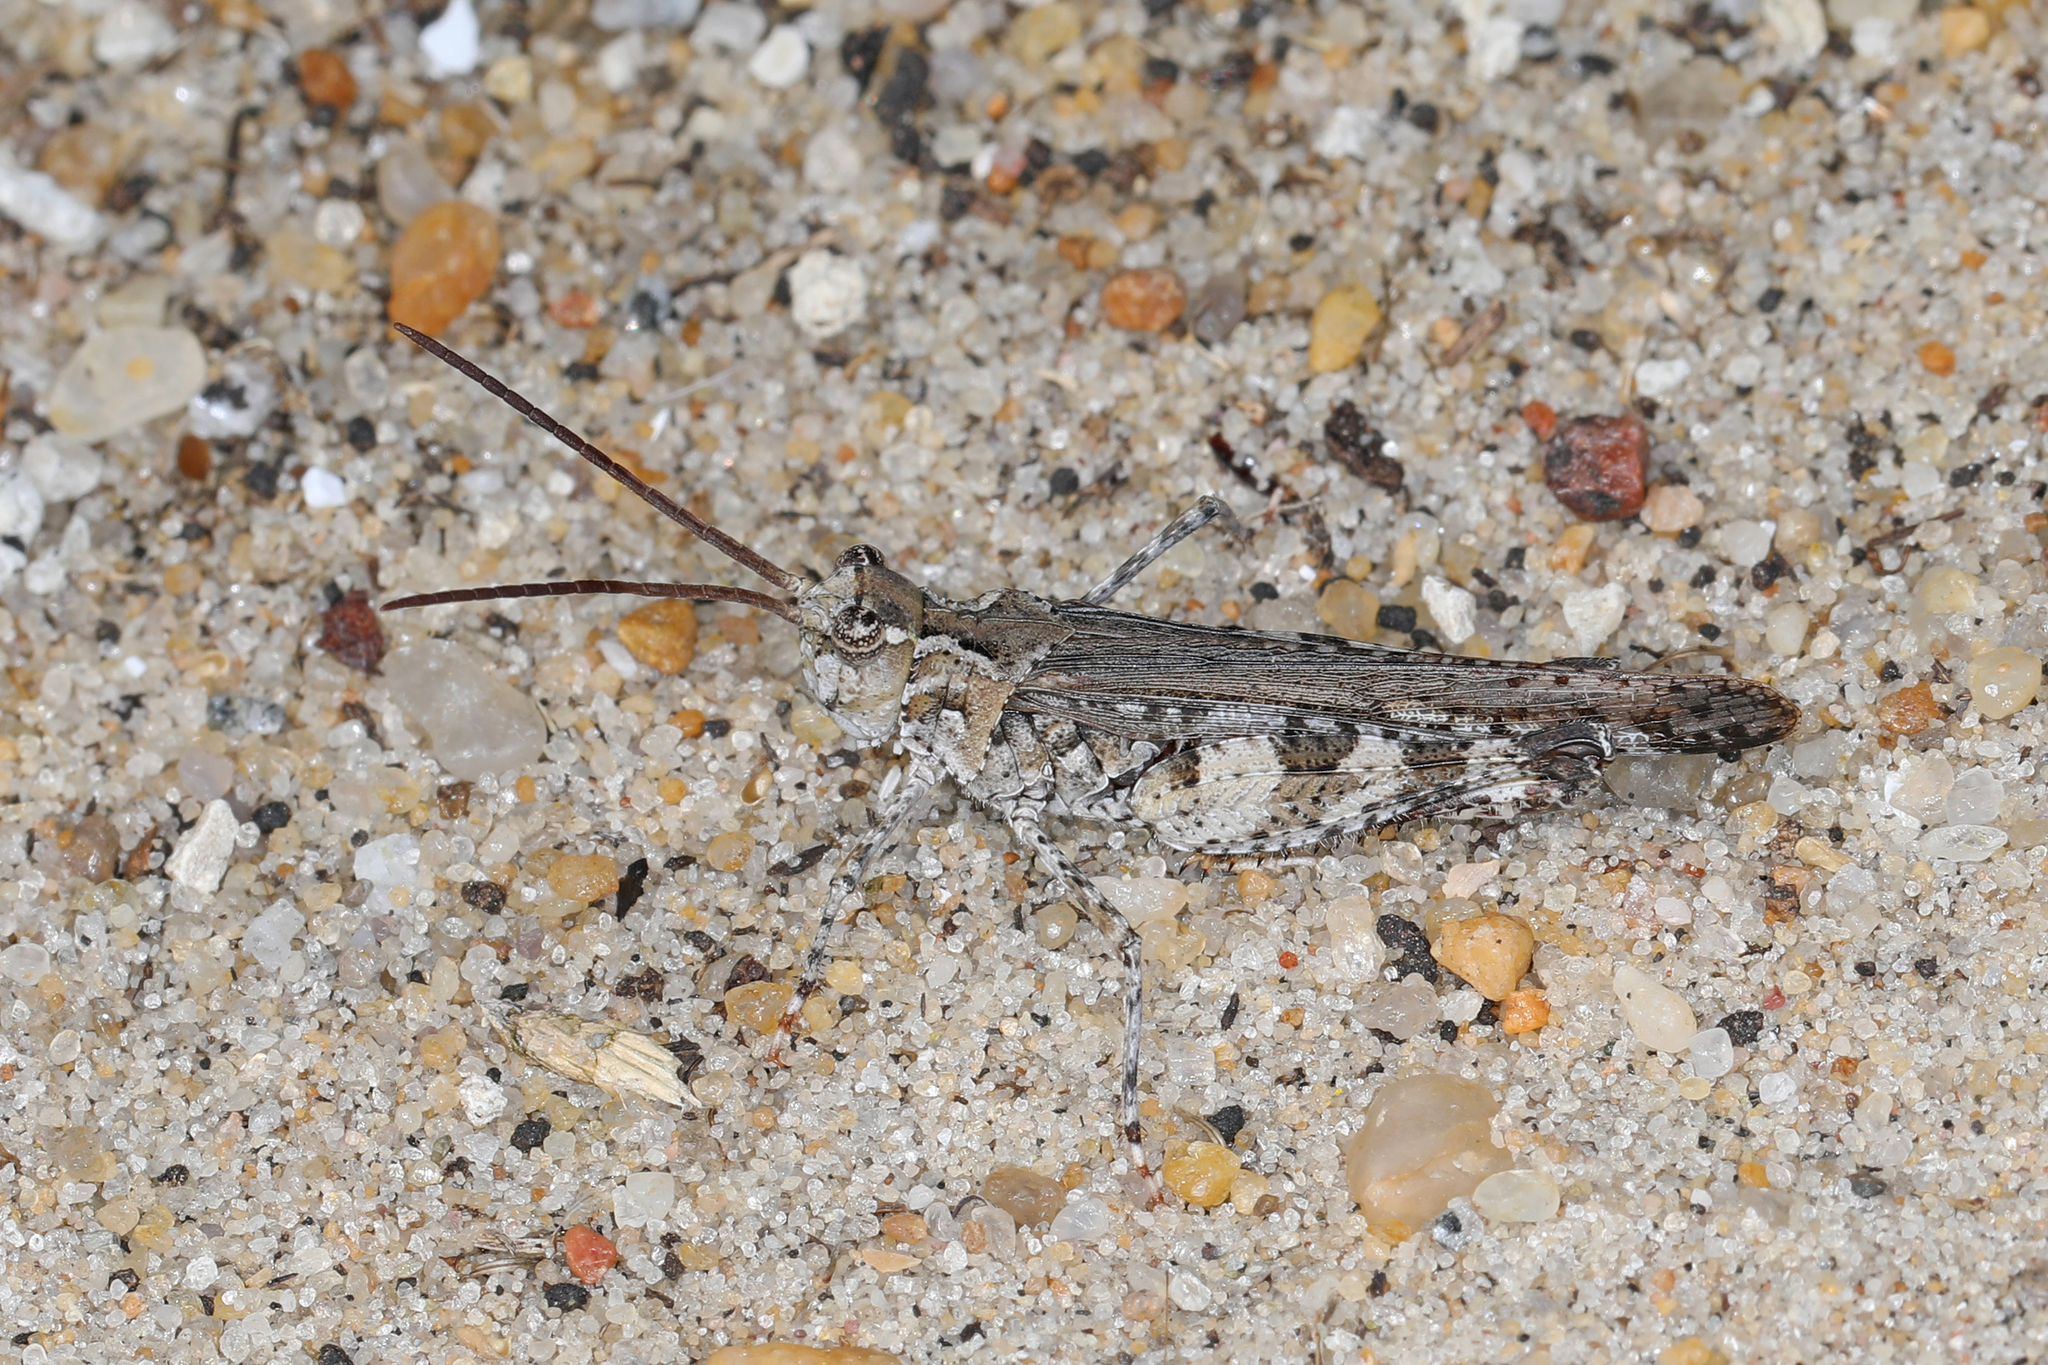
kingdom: Animalia
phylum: Arthropoda
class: Insecta
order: Orthoptera
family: Acrididae
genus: Psinidia
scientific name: Psinidia fenestralis
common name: Long-horned locust
